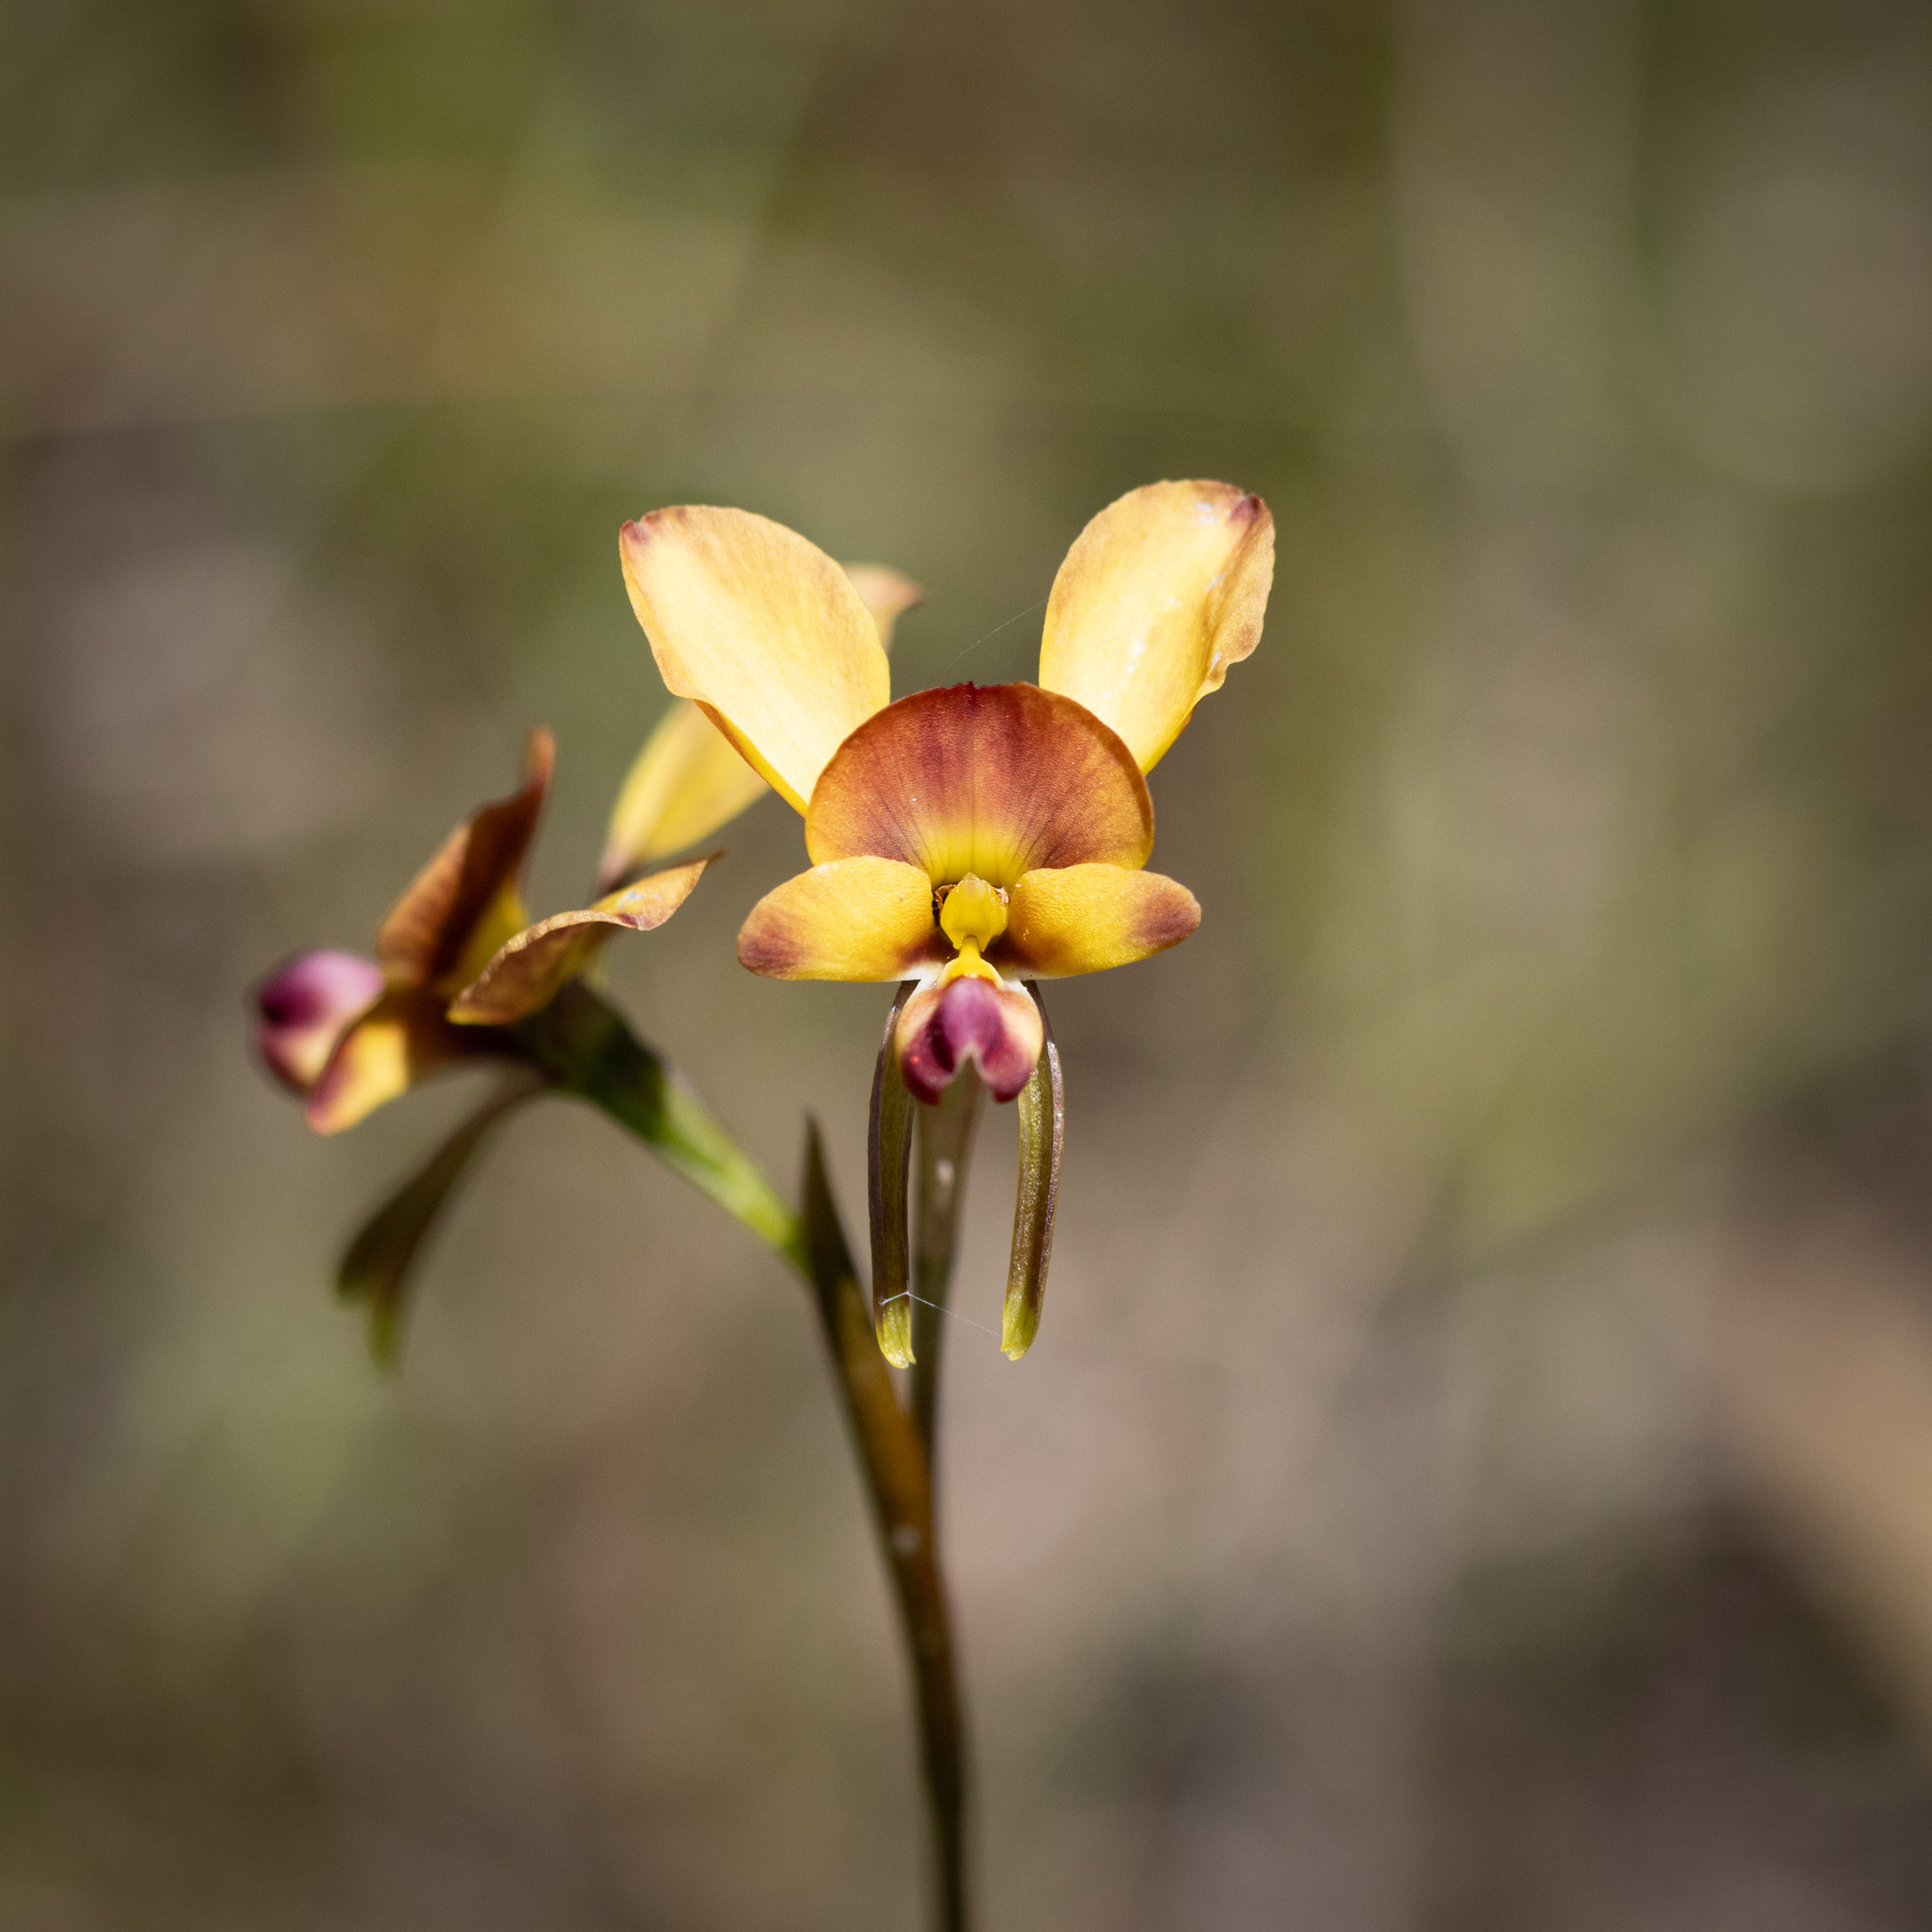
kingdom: Plantae
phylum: Tracheophyta
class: Liliopsida
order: Asparagales
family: Orchidaceae
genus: Diuris
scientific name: Diuris orientis
